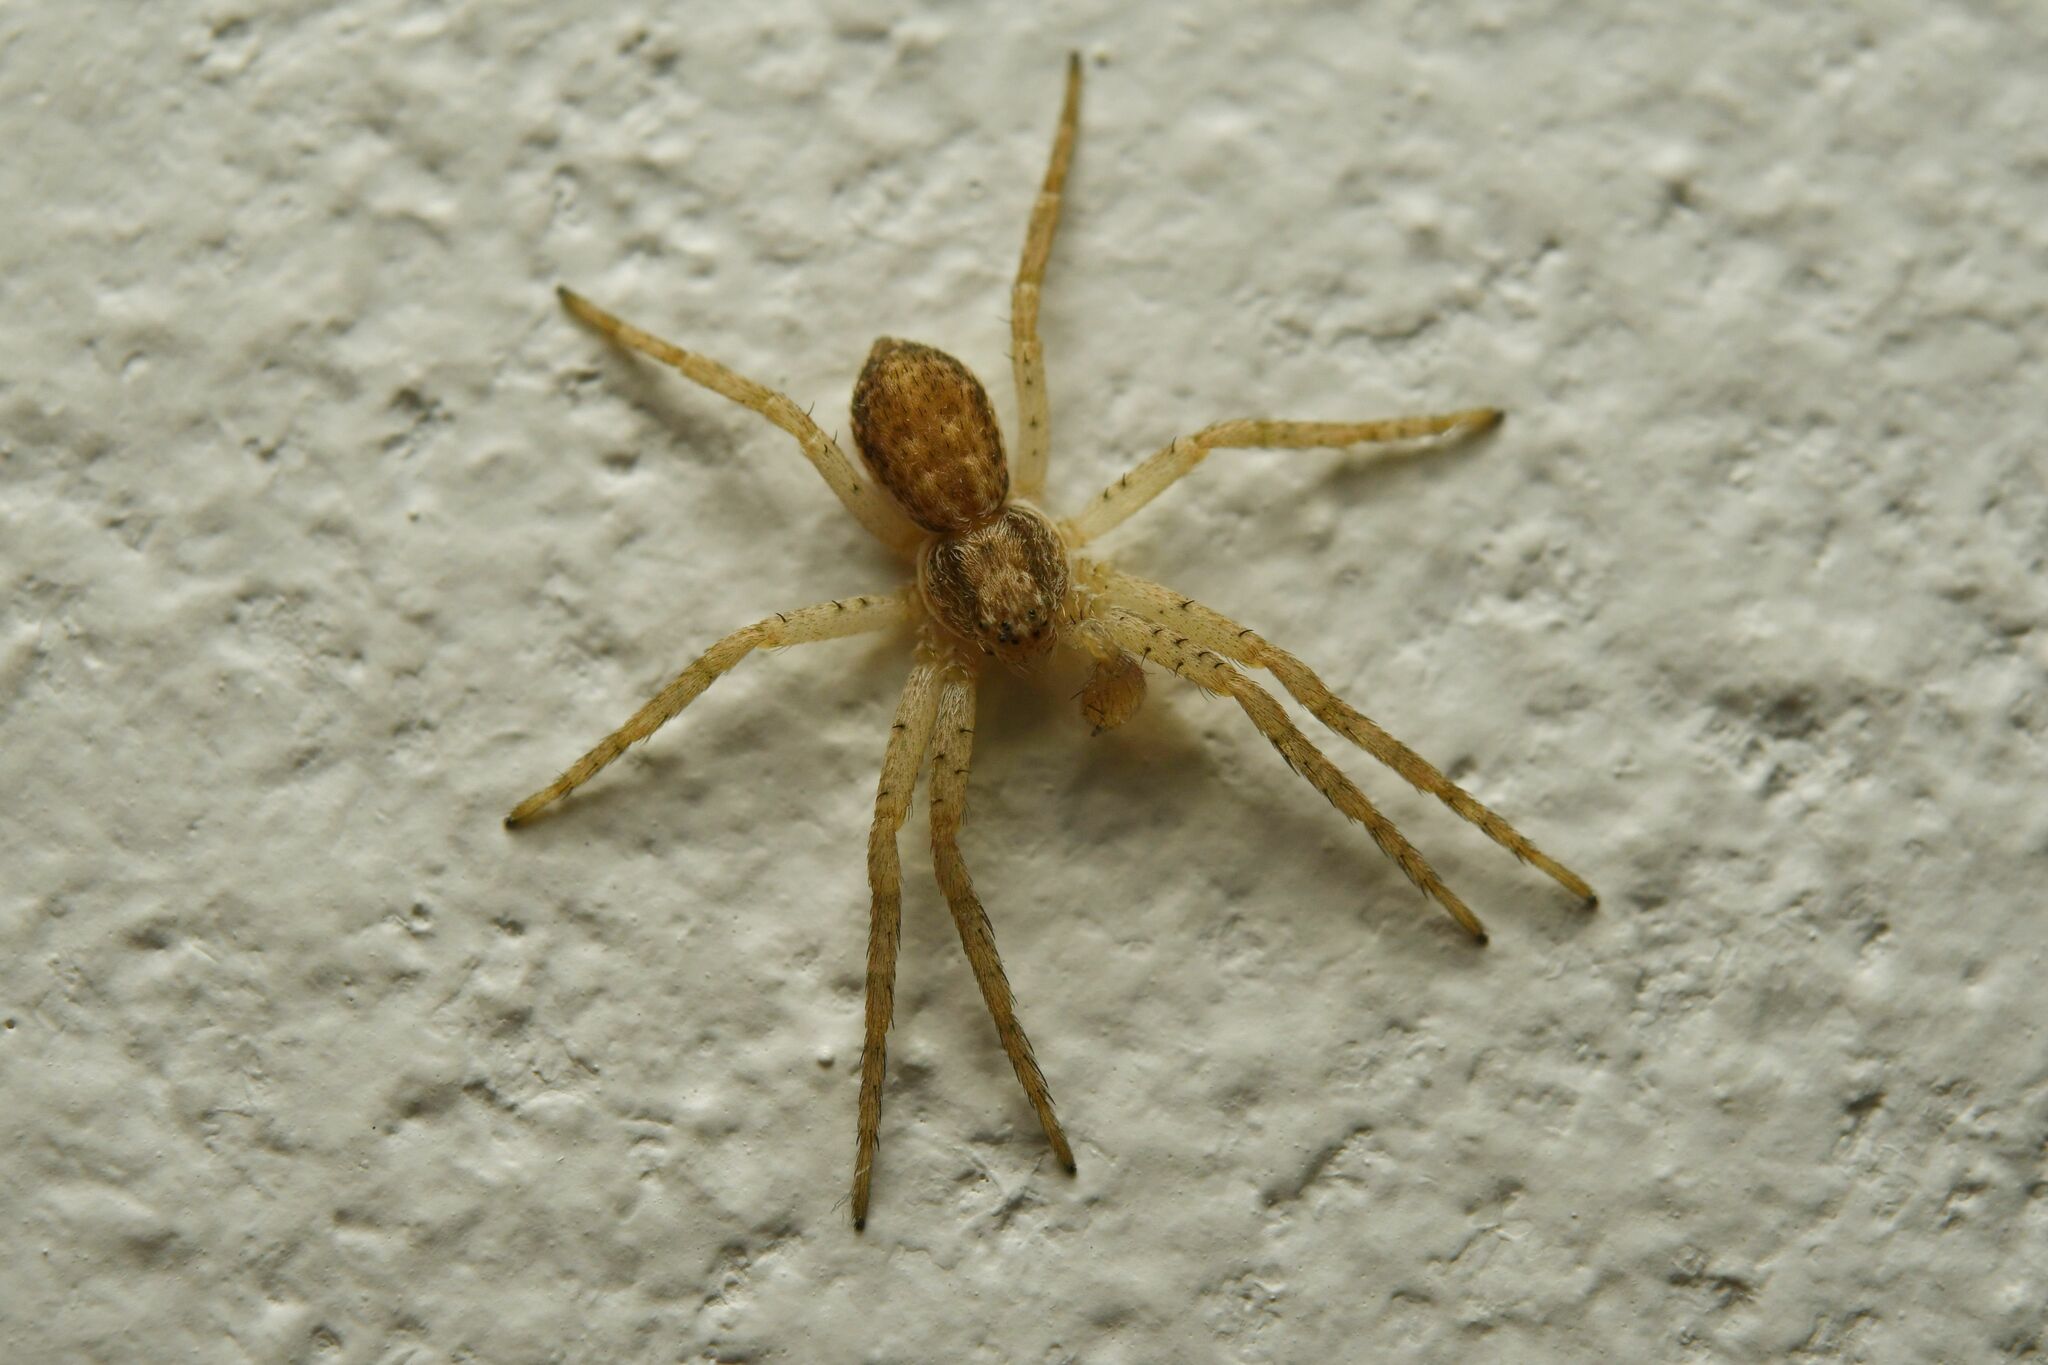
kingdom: Animalia
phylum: Arthropoda
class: Arachnida
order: Araneae
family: Philodromidae
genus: Philodromus
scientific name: Philodromus dispar
